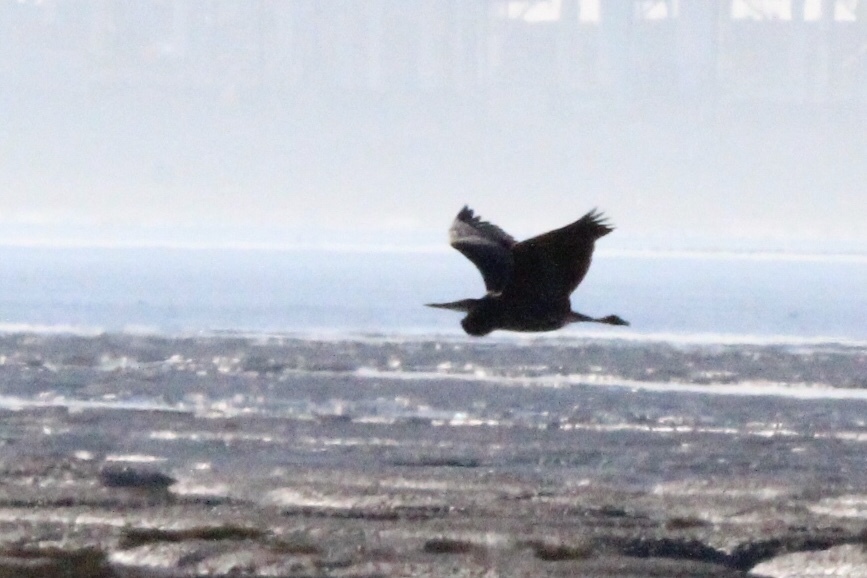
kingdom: Animalia
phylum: Chordata
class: Aves
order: Pelecaniformes
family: Ardeidae
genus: Ardea
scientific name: Ardea herodias
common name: Great blue heron
